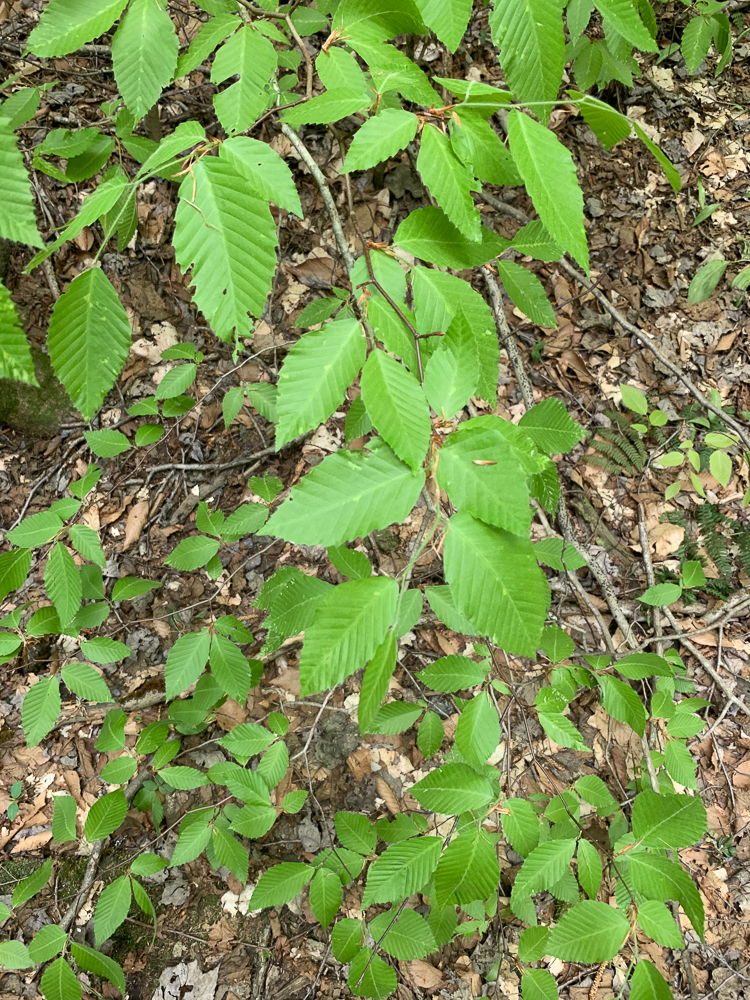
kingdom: Plantae
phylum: Tracheophyta
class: Magnoliopsida
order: Fagales
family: Fagaceae
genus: Fagus
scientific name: Fagus grandifolia
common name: American beech
